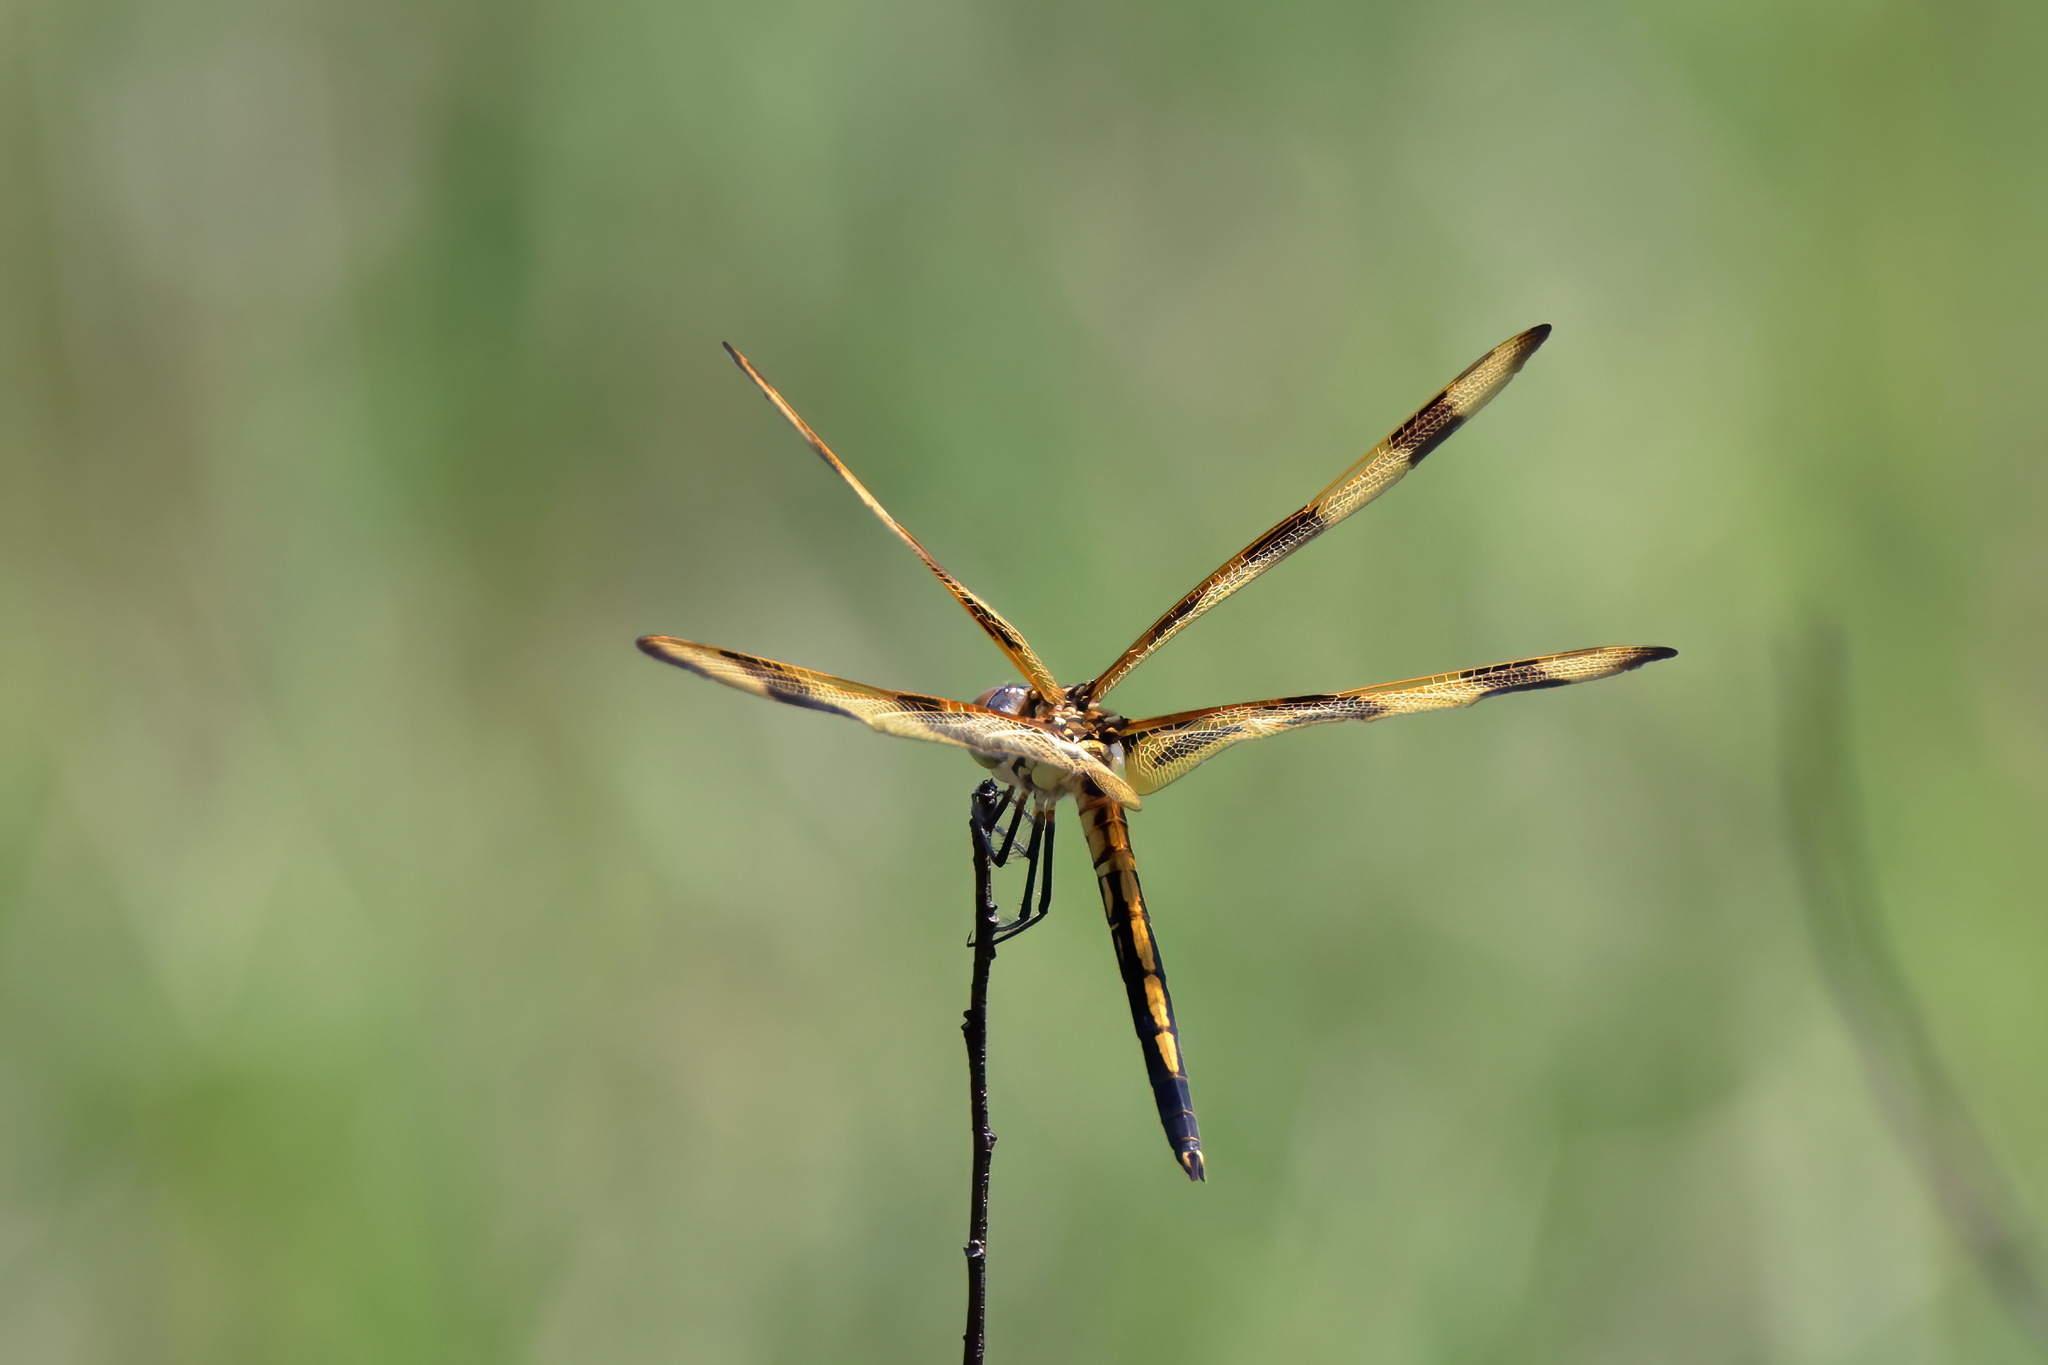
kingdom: Animalia
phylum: Arthropoda
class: Insecta
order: Odonata
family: Libellulidae
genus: Celithemis
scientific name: Celithemis eponina
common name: Halloween pennant
